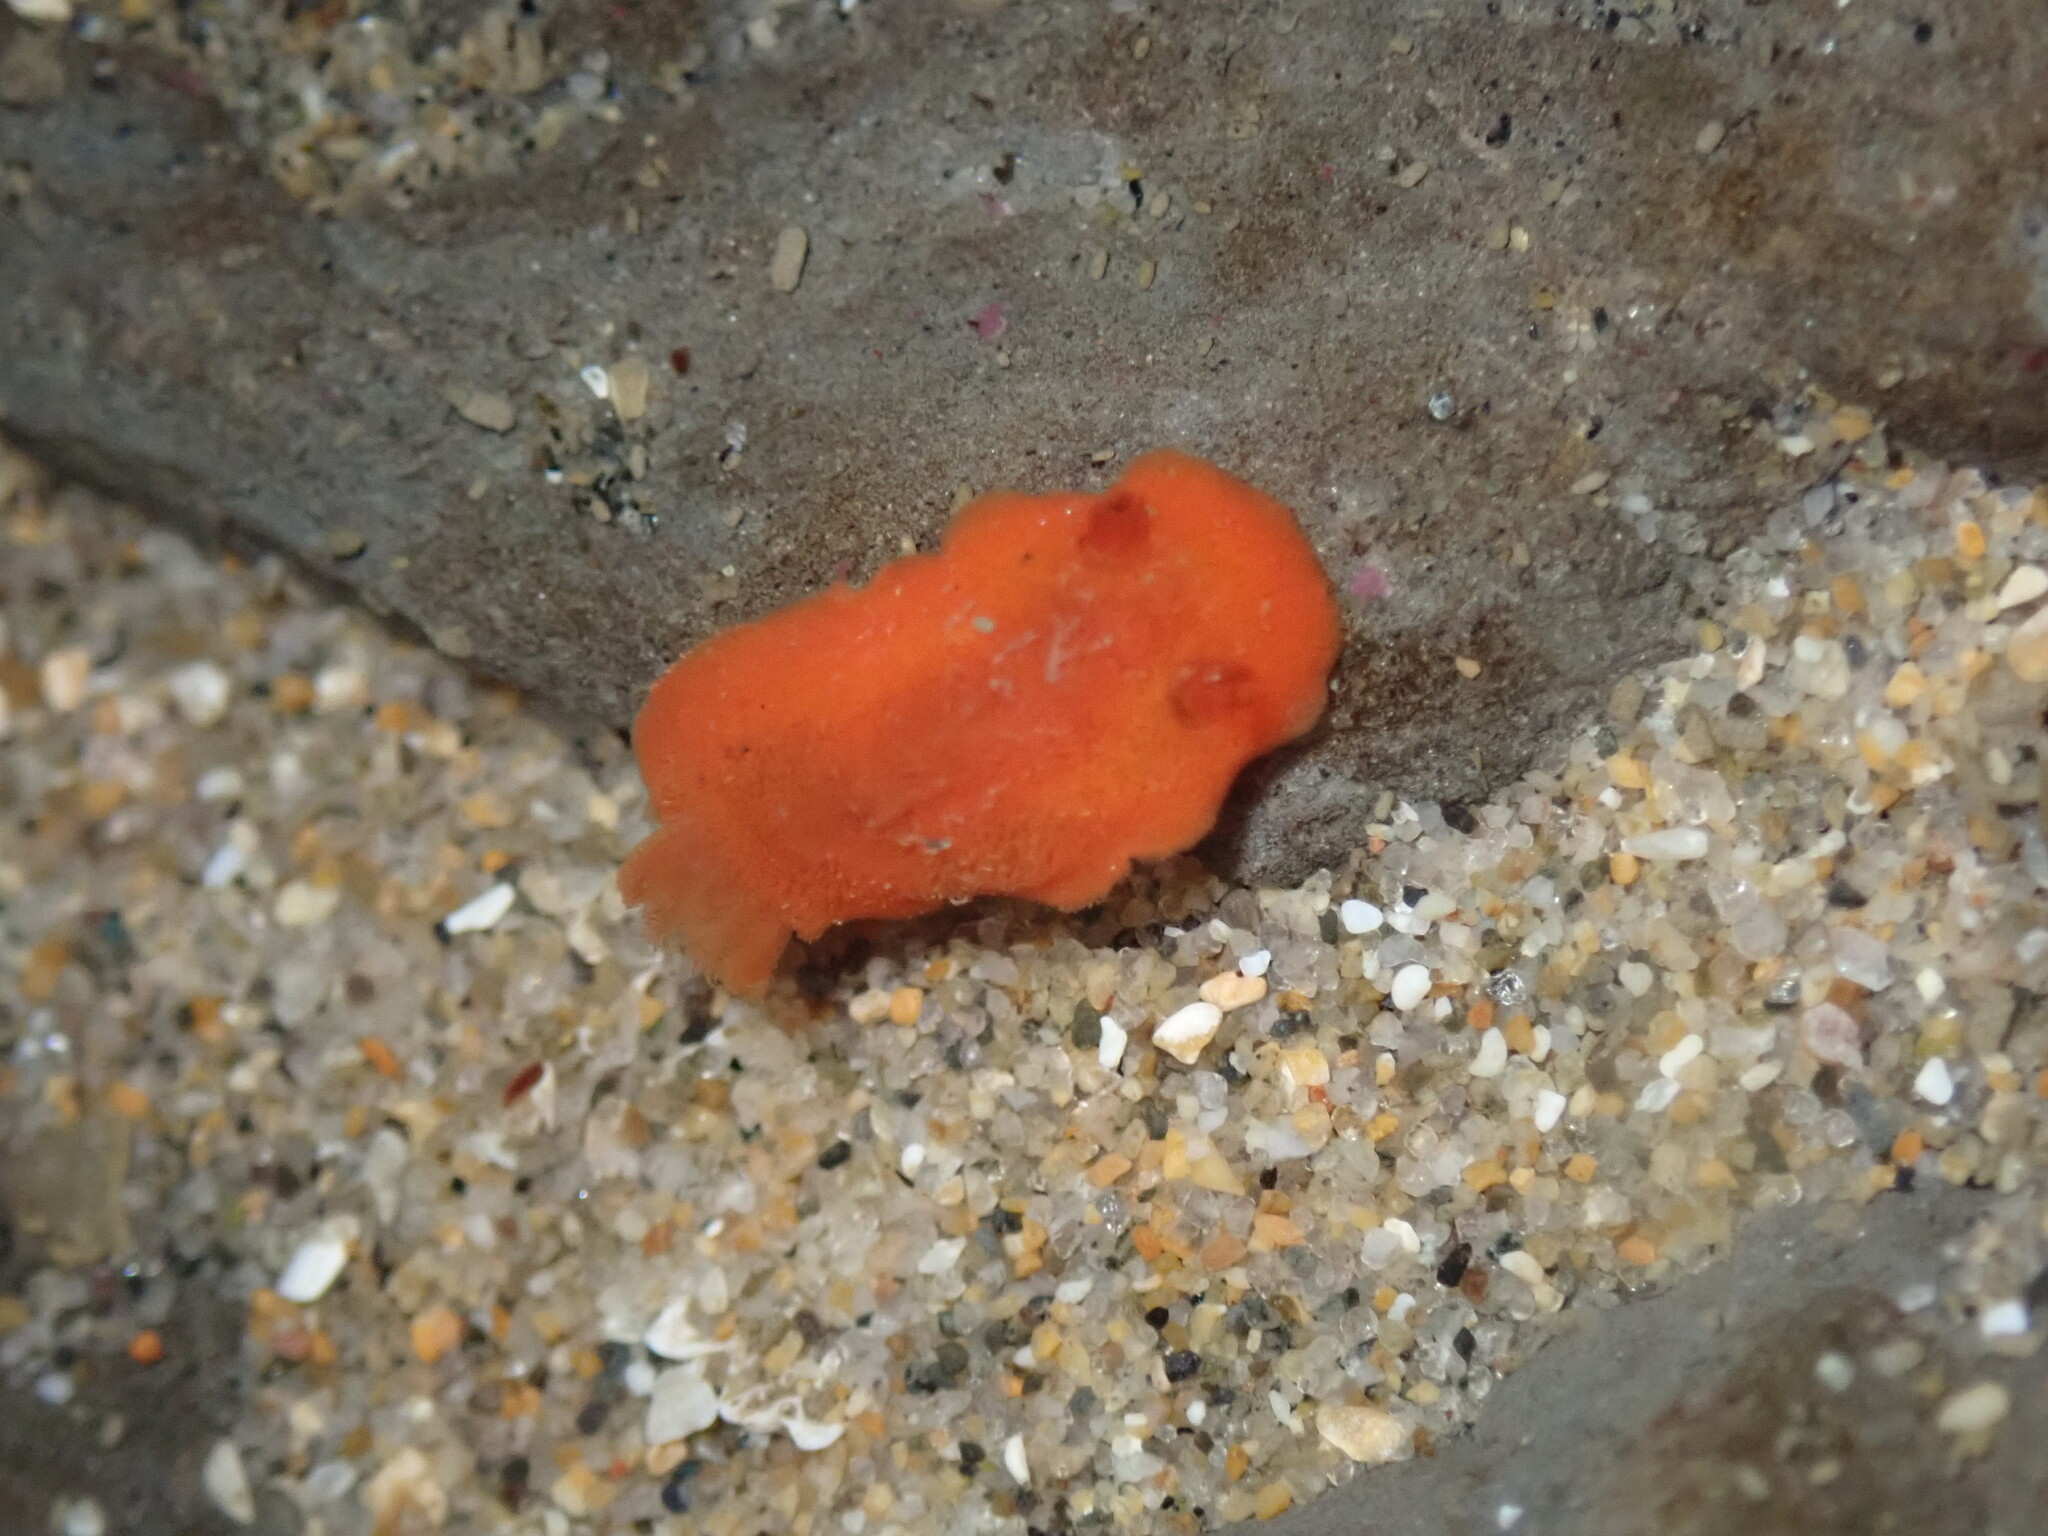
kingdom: Animalia
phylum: Mollusca
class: Gastropoda
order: Nudibranchia
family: Discodorididae
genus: Rostanga
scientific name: Rostanga pulchra
